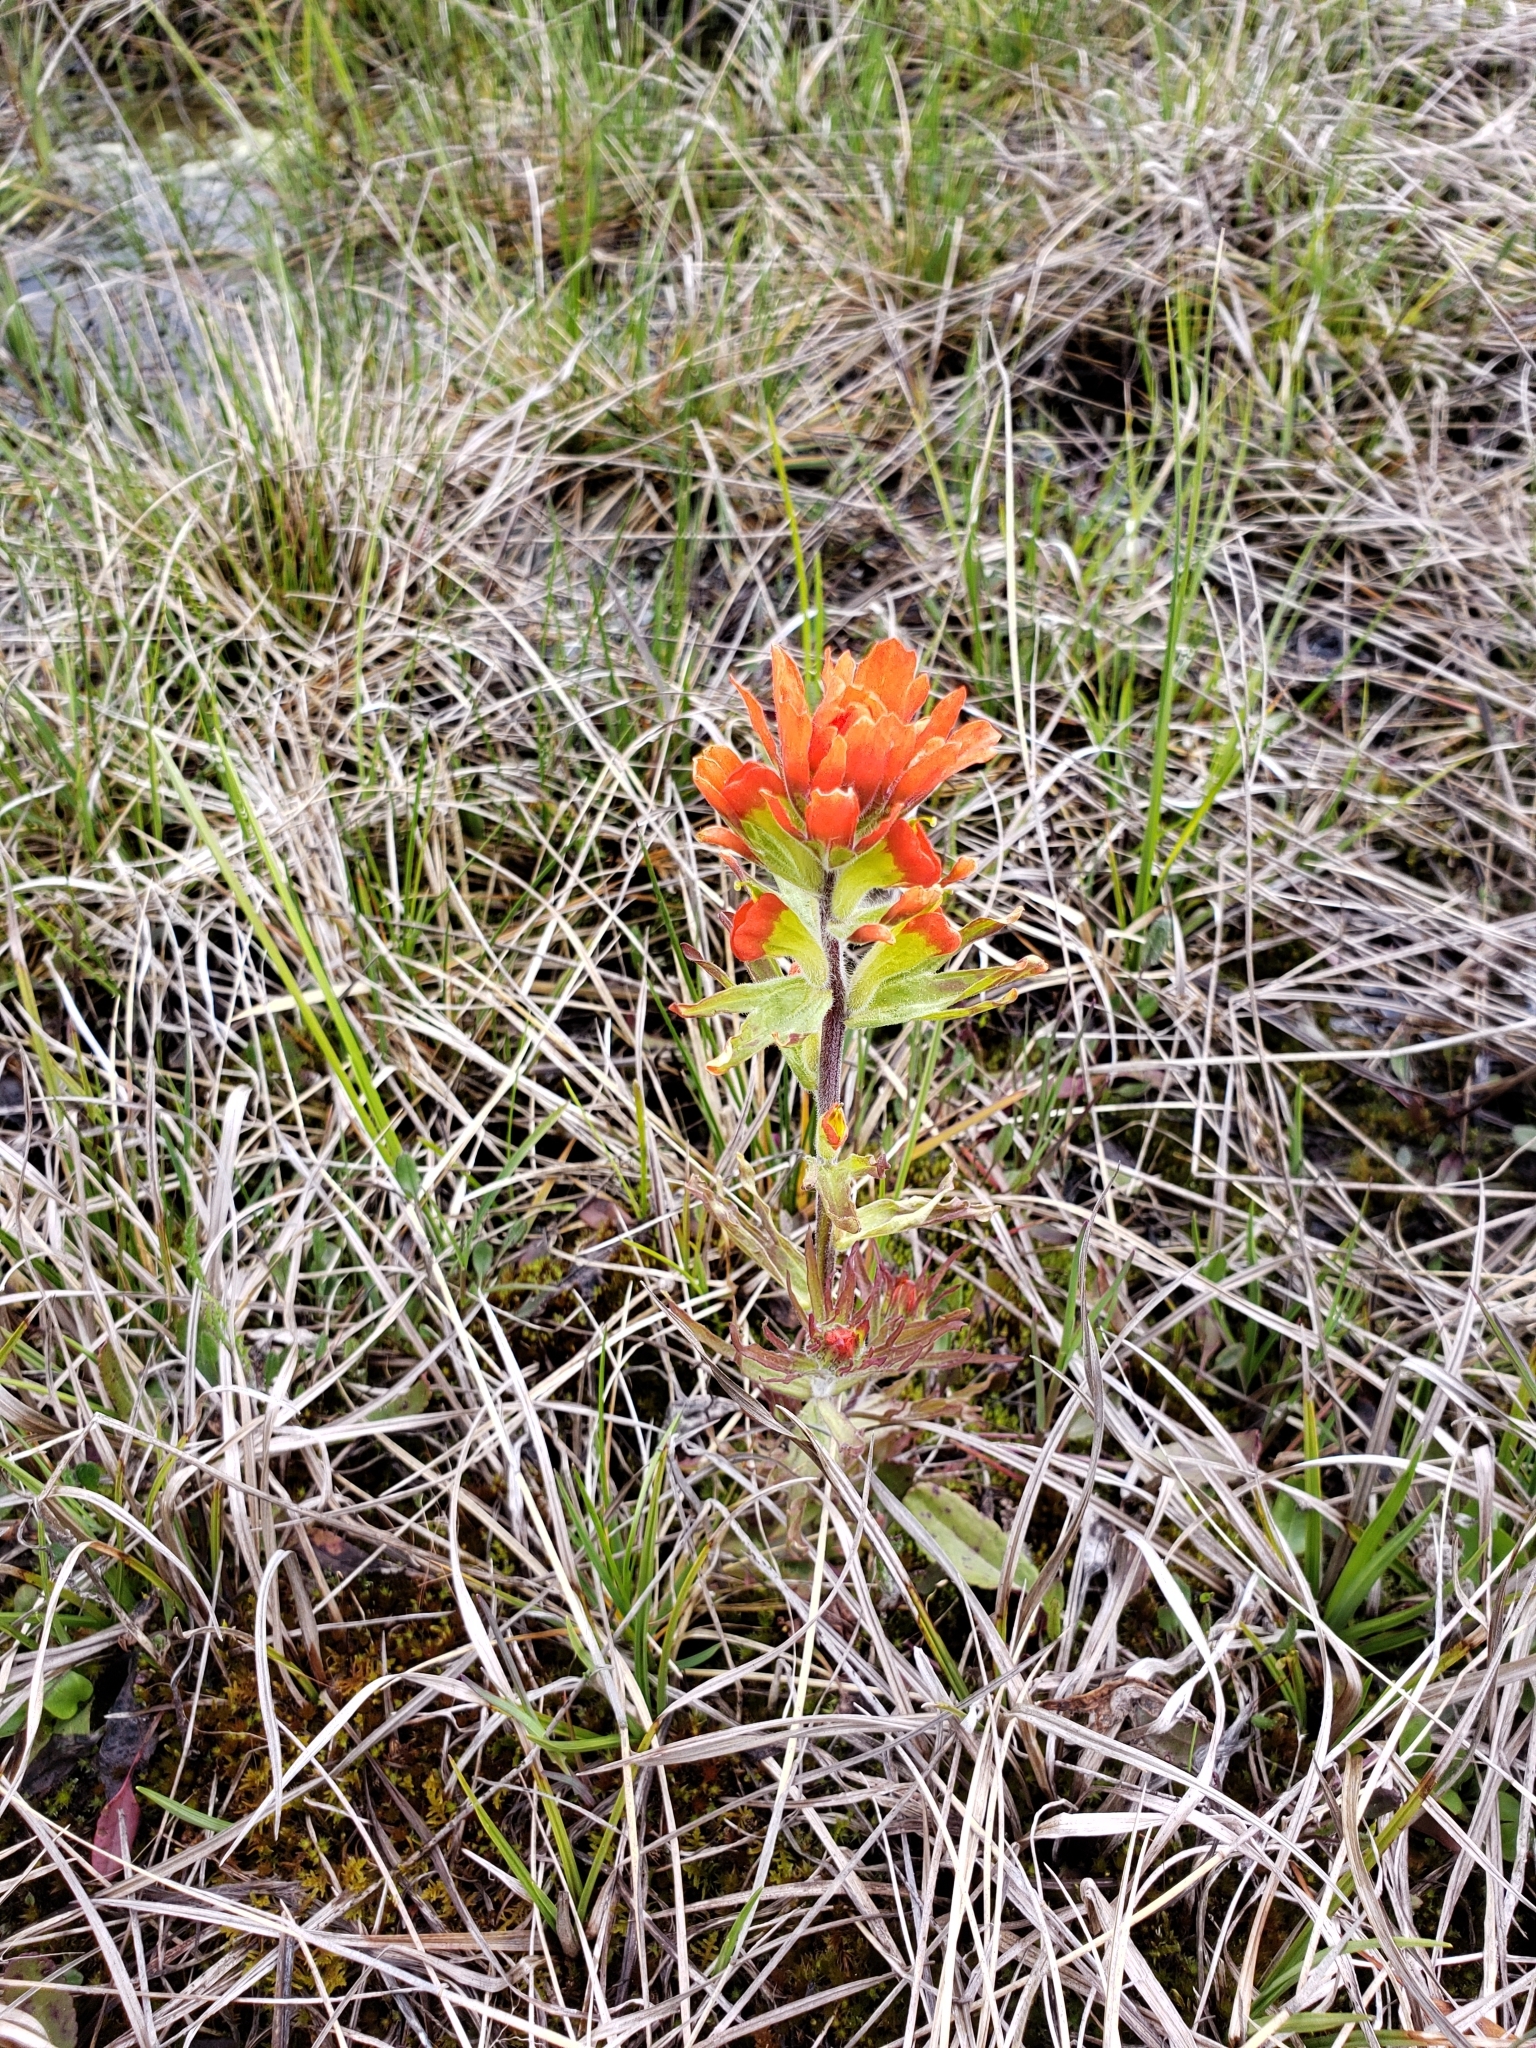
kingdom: Plantae
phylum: Tracheophyta
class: Magnoliopsida
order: Lamiales
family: Orobanchaceae
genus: Castilleja
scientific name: Castilleja coccinea
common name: Scarlet paintbrush
